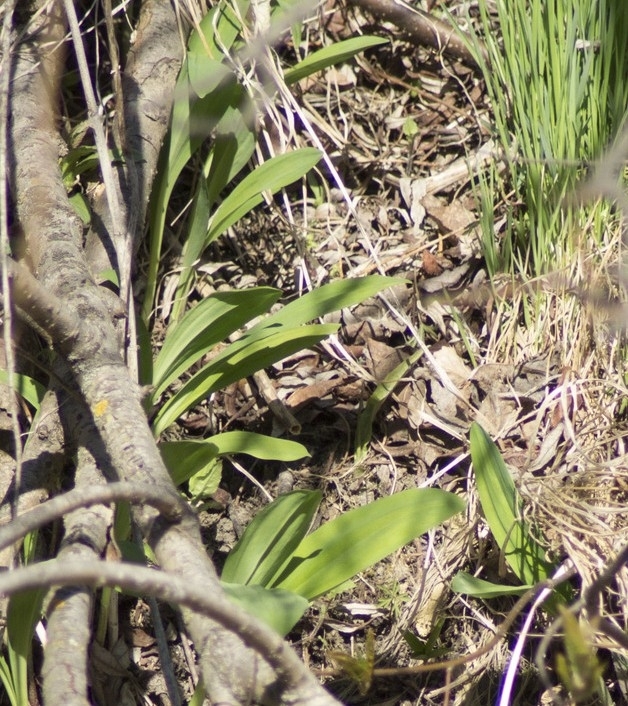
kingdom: Plantae
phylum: Tracheophyta
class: Liliopsida
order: Asparagales
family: Amaryllidaceae
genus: Allium
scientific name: Allium microdictyon
